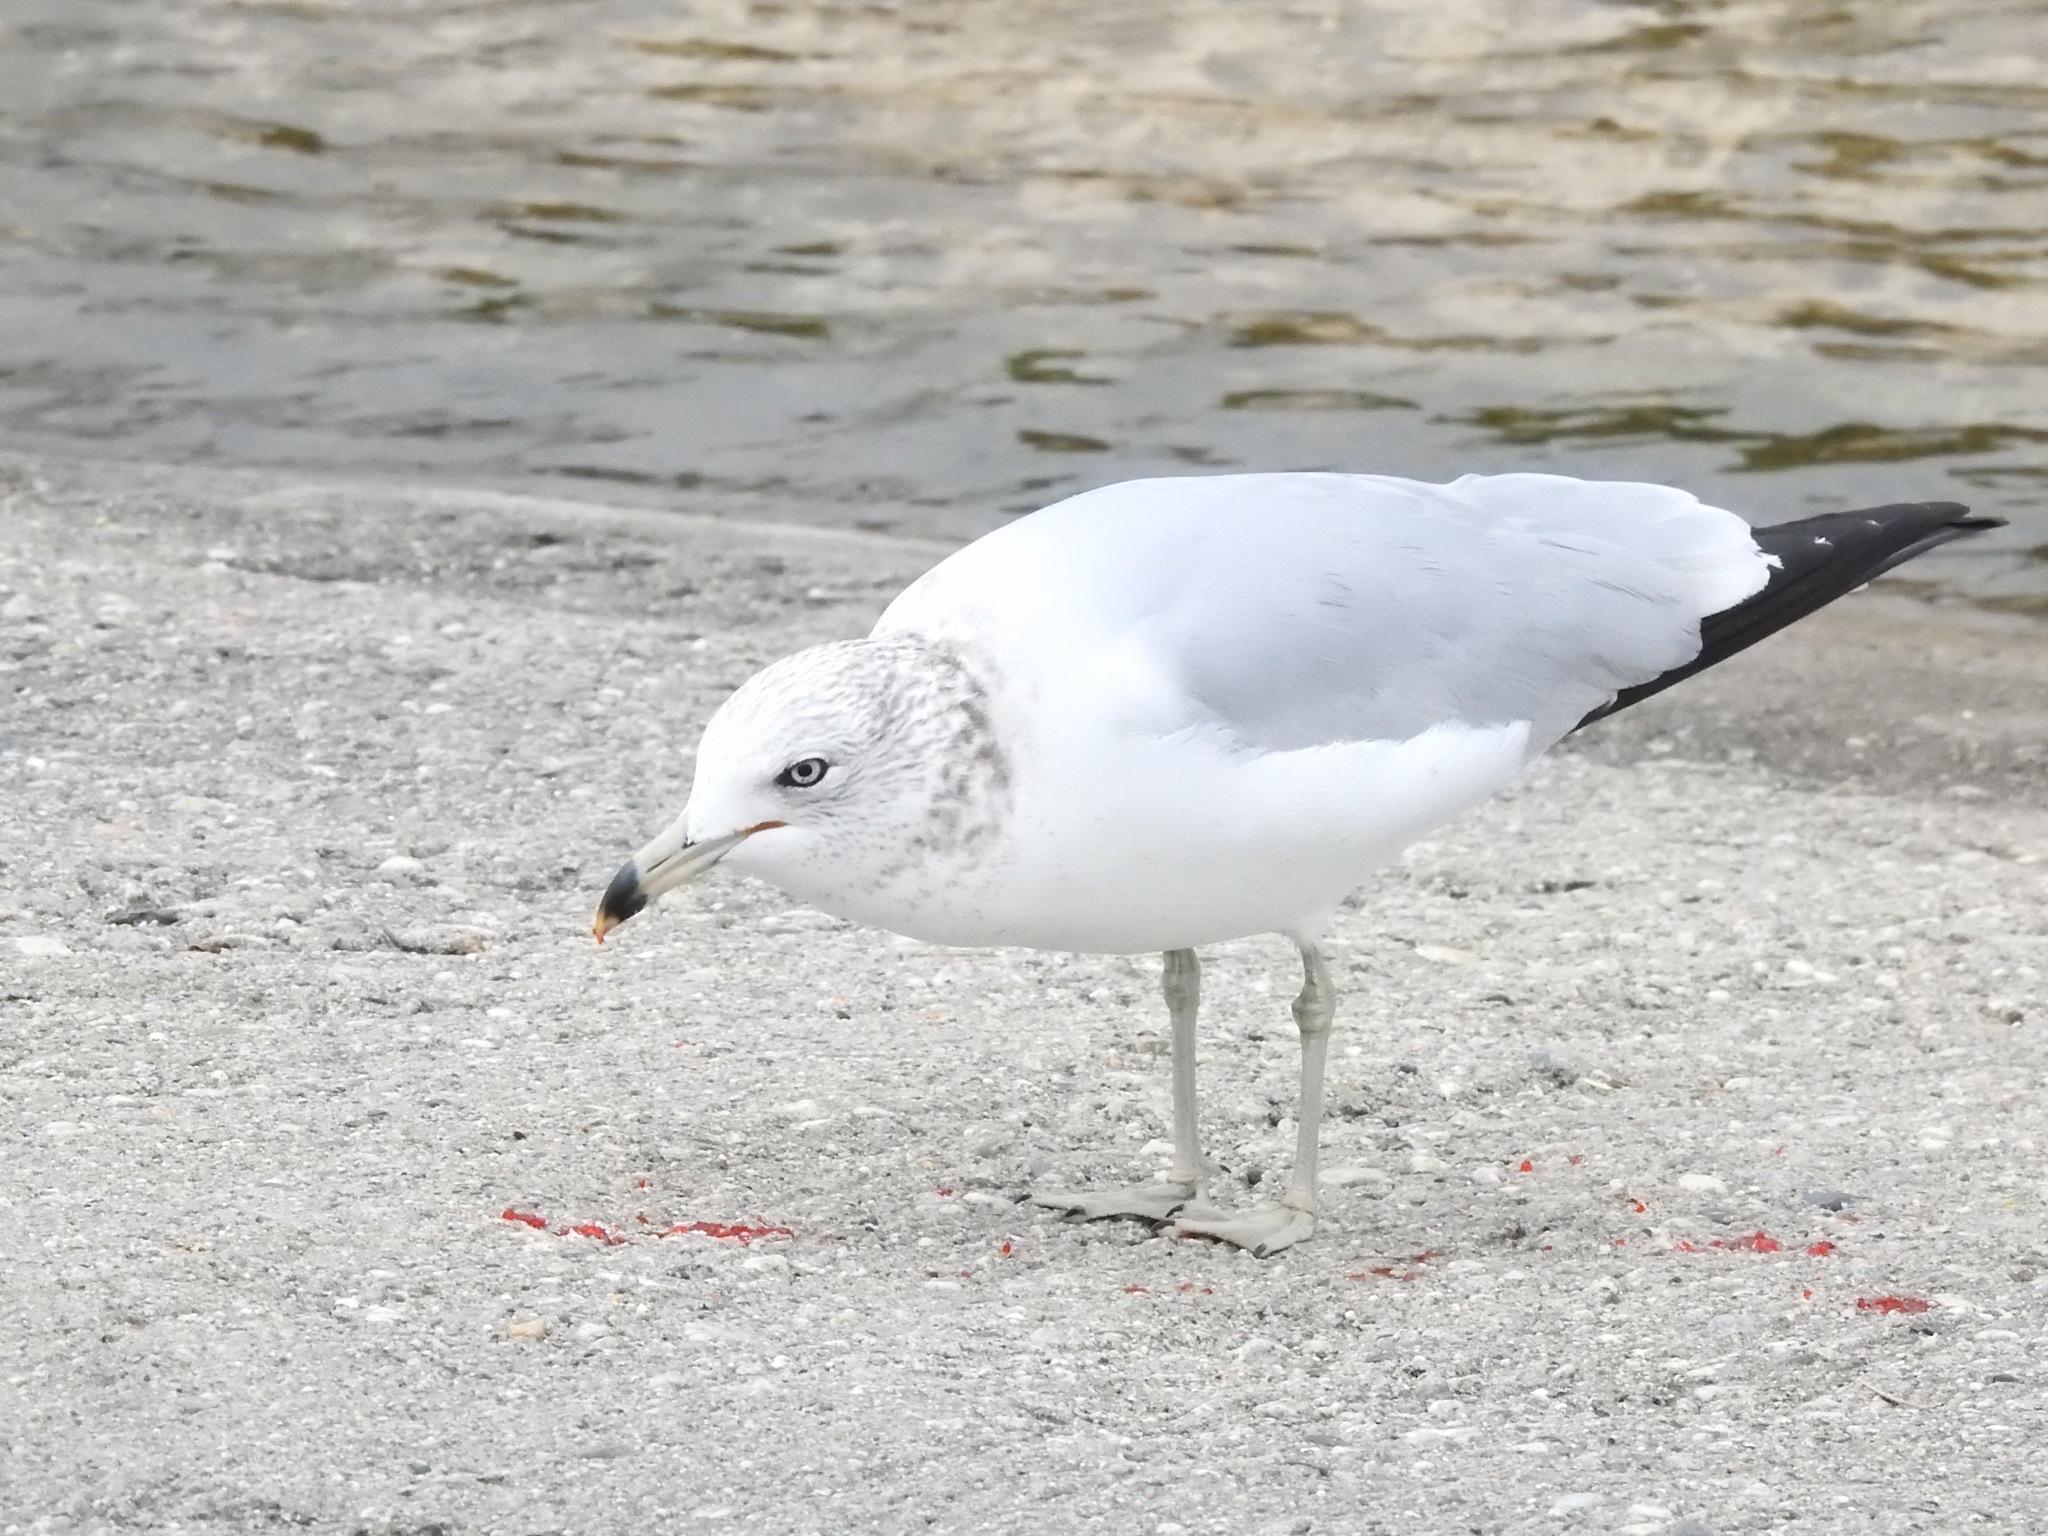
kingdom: Animalia
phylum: Chordata
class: Aves
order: Charadriiformes
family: Laridae
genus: Larus
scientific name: Larus delawarensis
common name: Ring-billed gull
